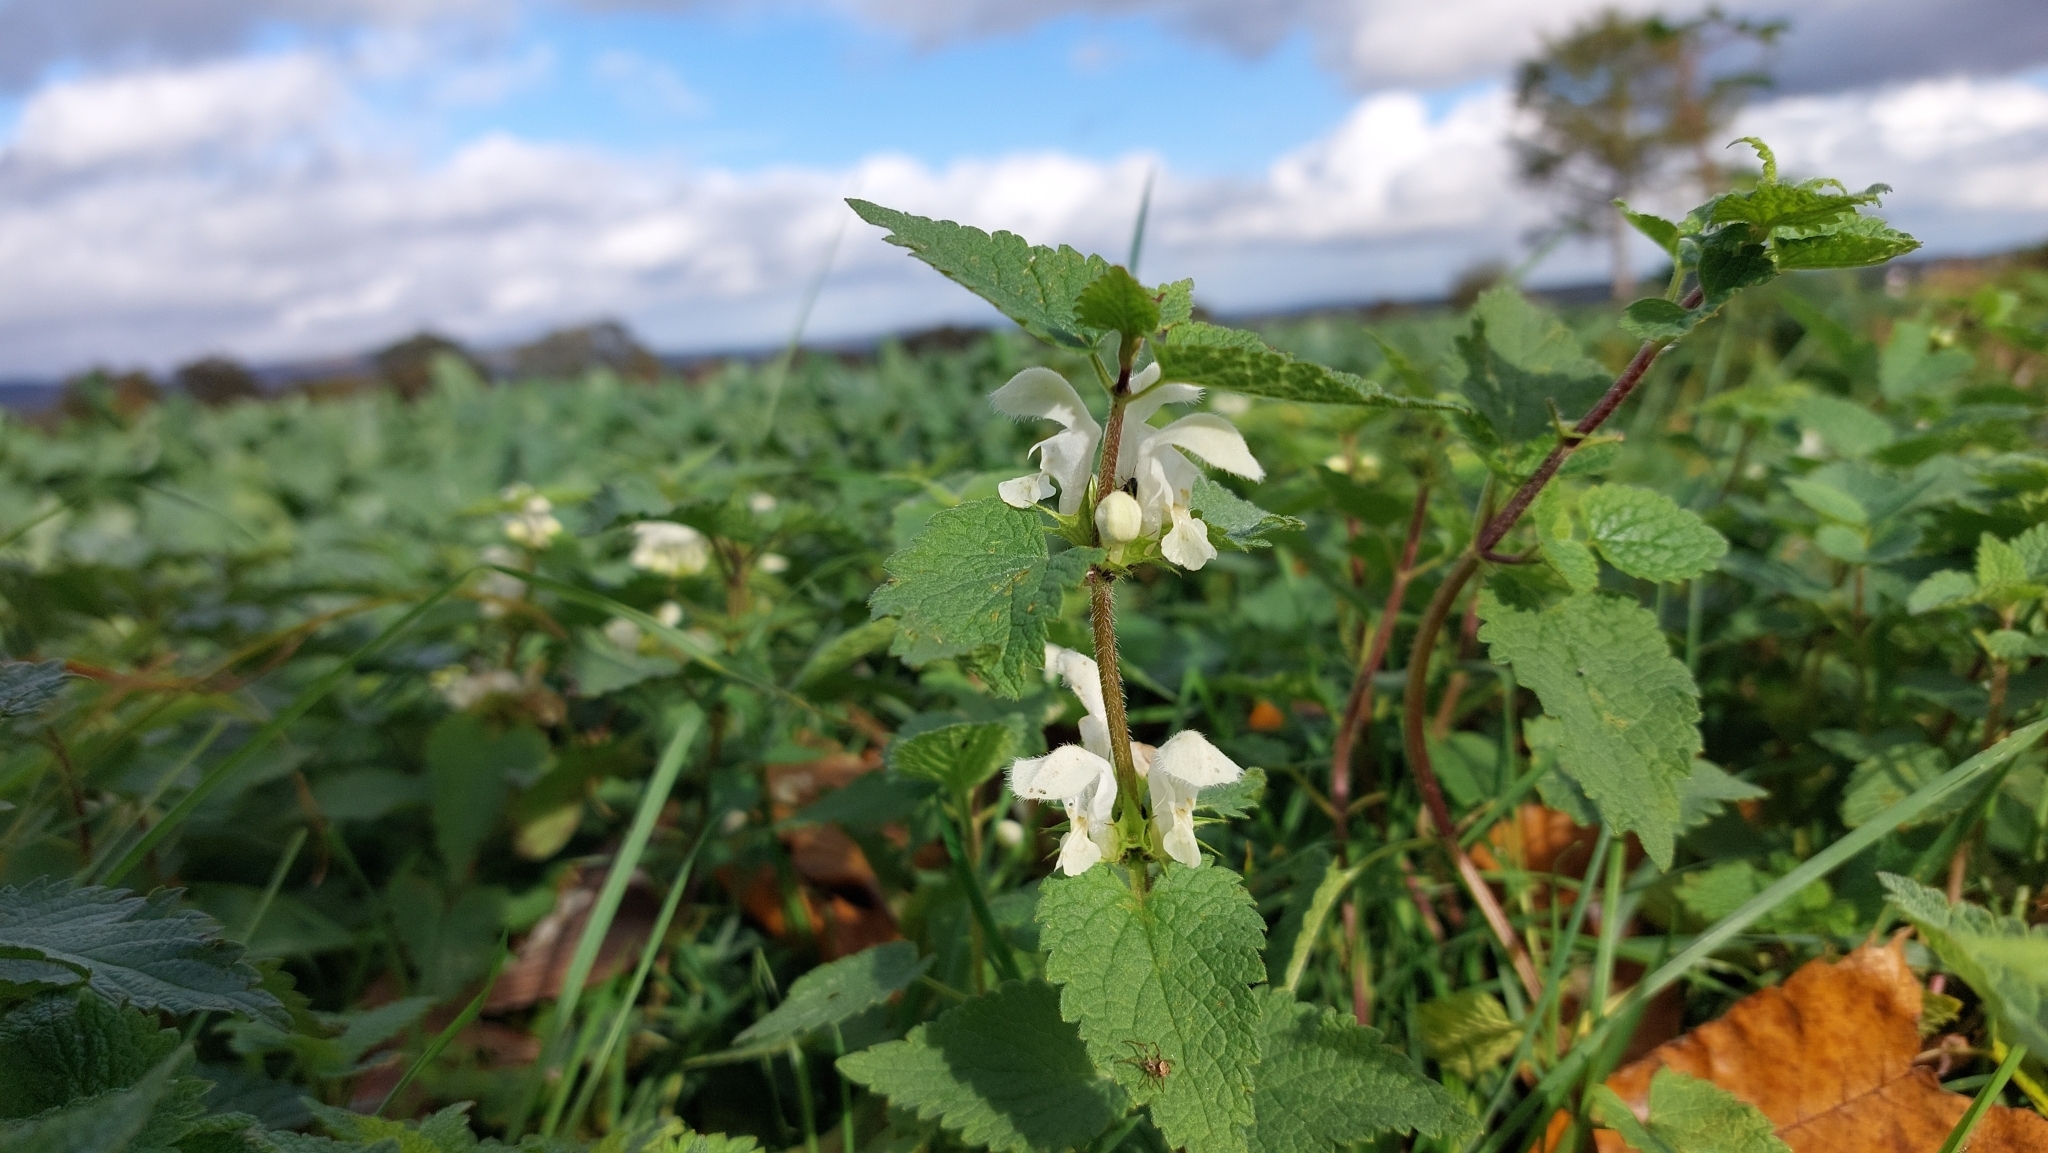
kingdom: Plantae
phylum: Tracheophyta
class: Magnoliopsida
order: Lamiales
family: Lamiaceae
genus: Lamium
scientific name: Lamium album
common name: White dead-nettle
